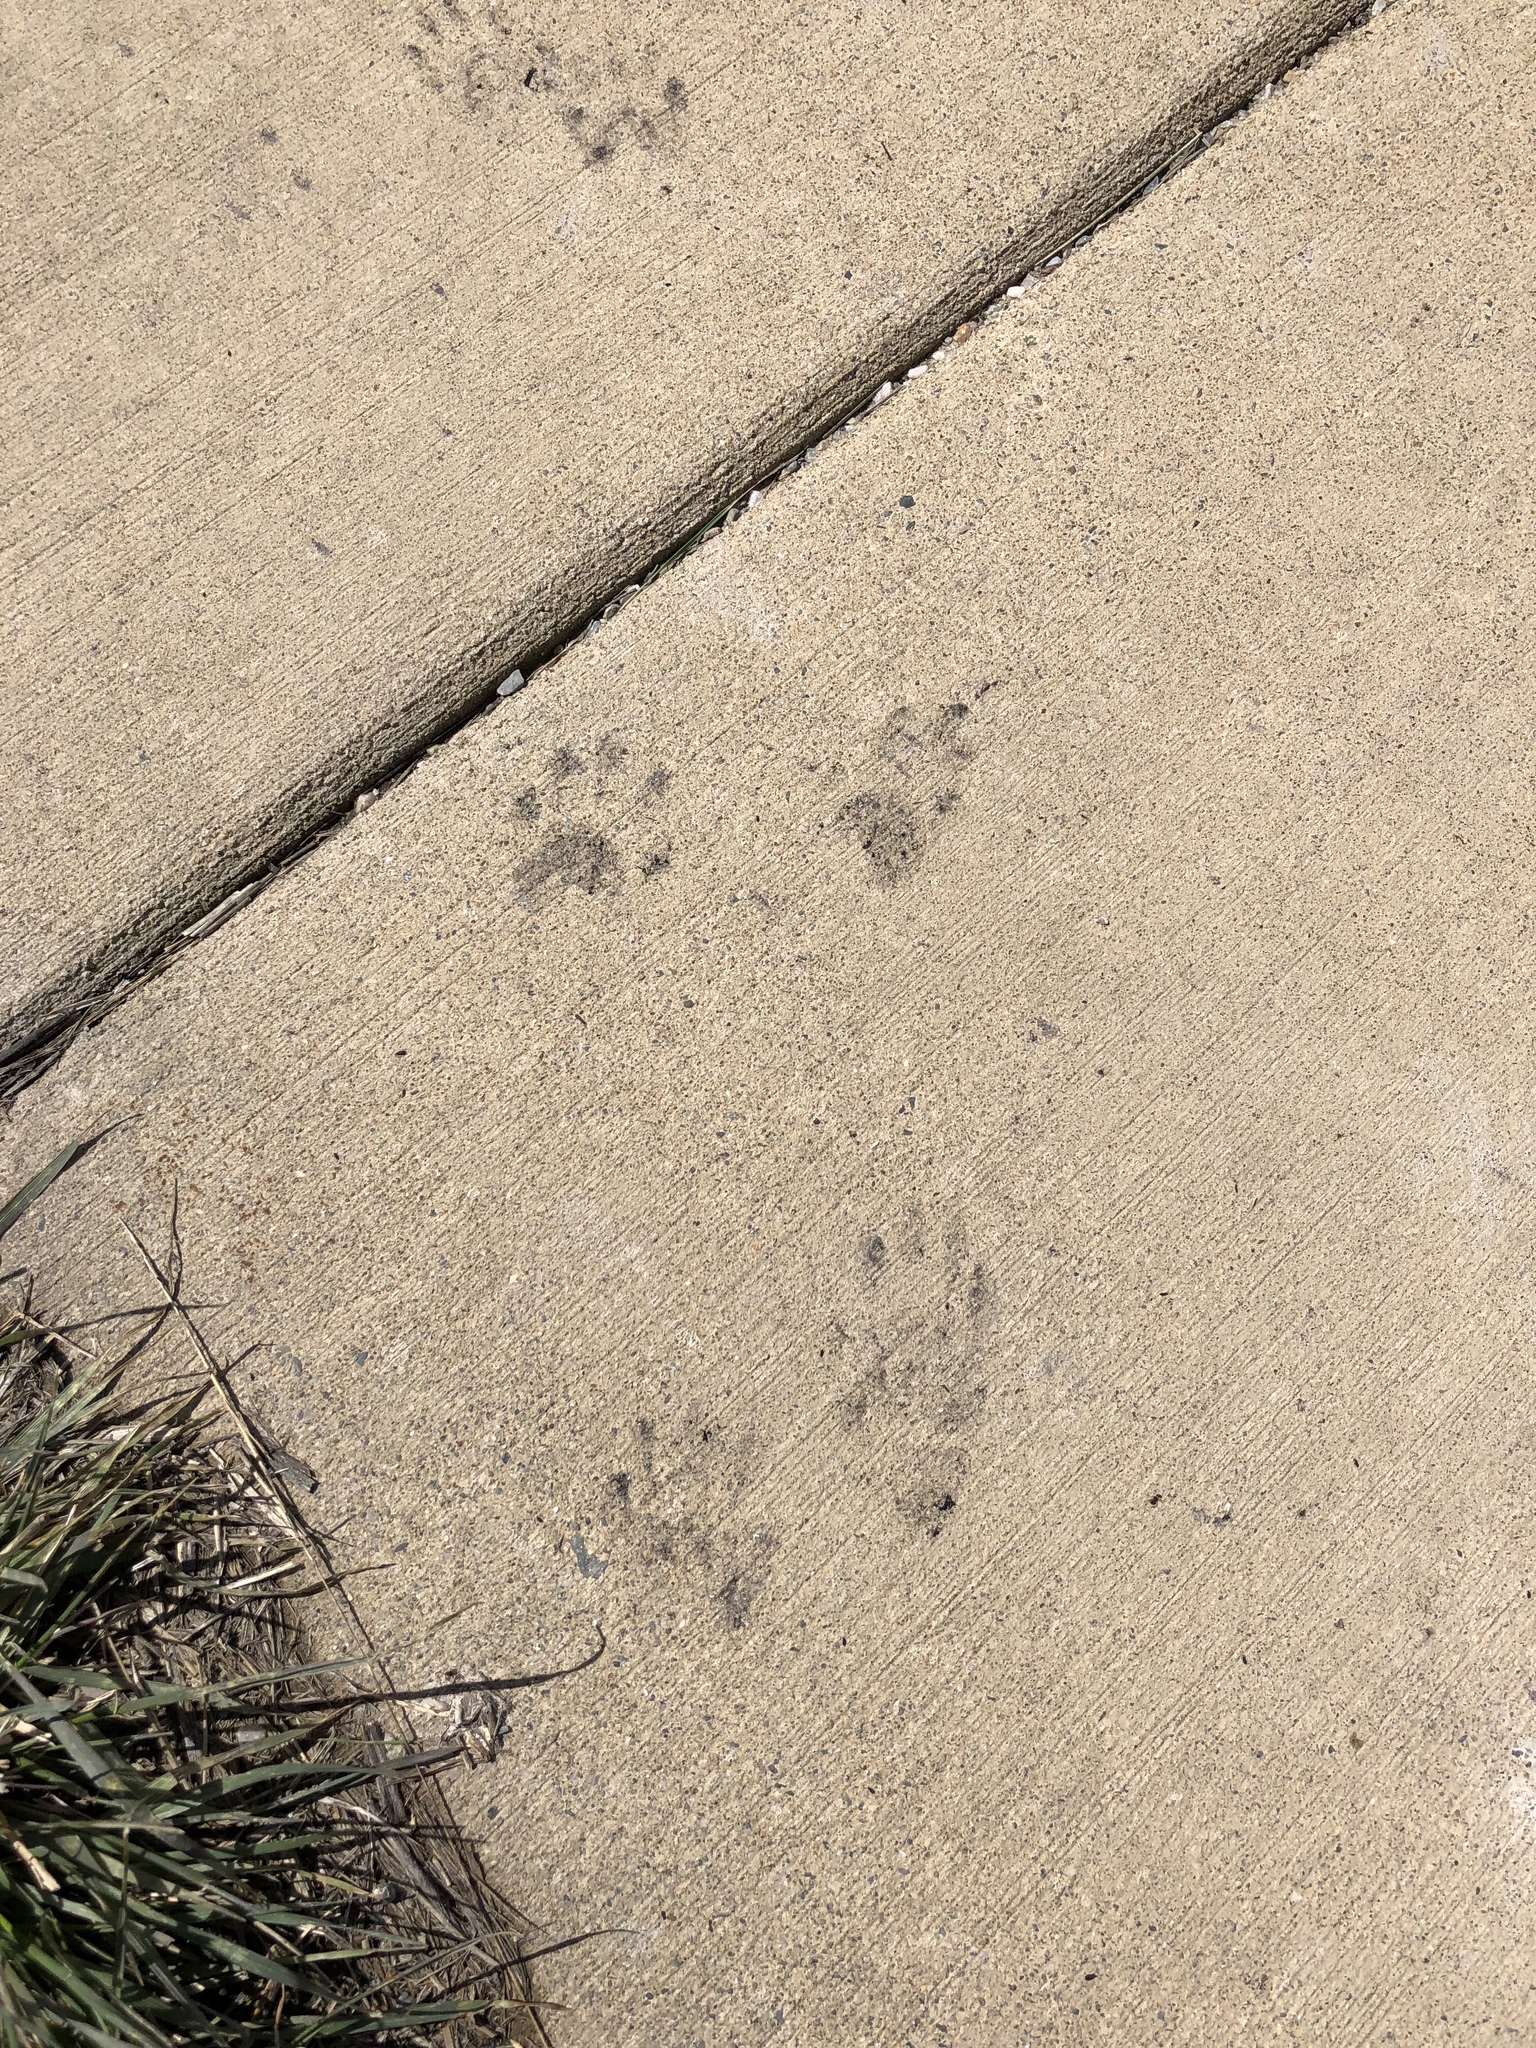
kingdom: Animalia
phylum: Chordata
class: Mammalia
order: Carnivora
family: Procyonidae
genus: Procyon
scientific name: Procyon lotor
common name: Raccoon
